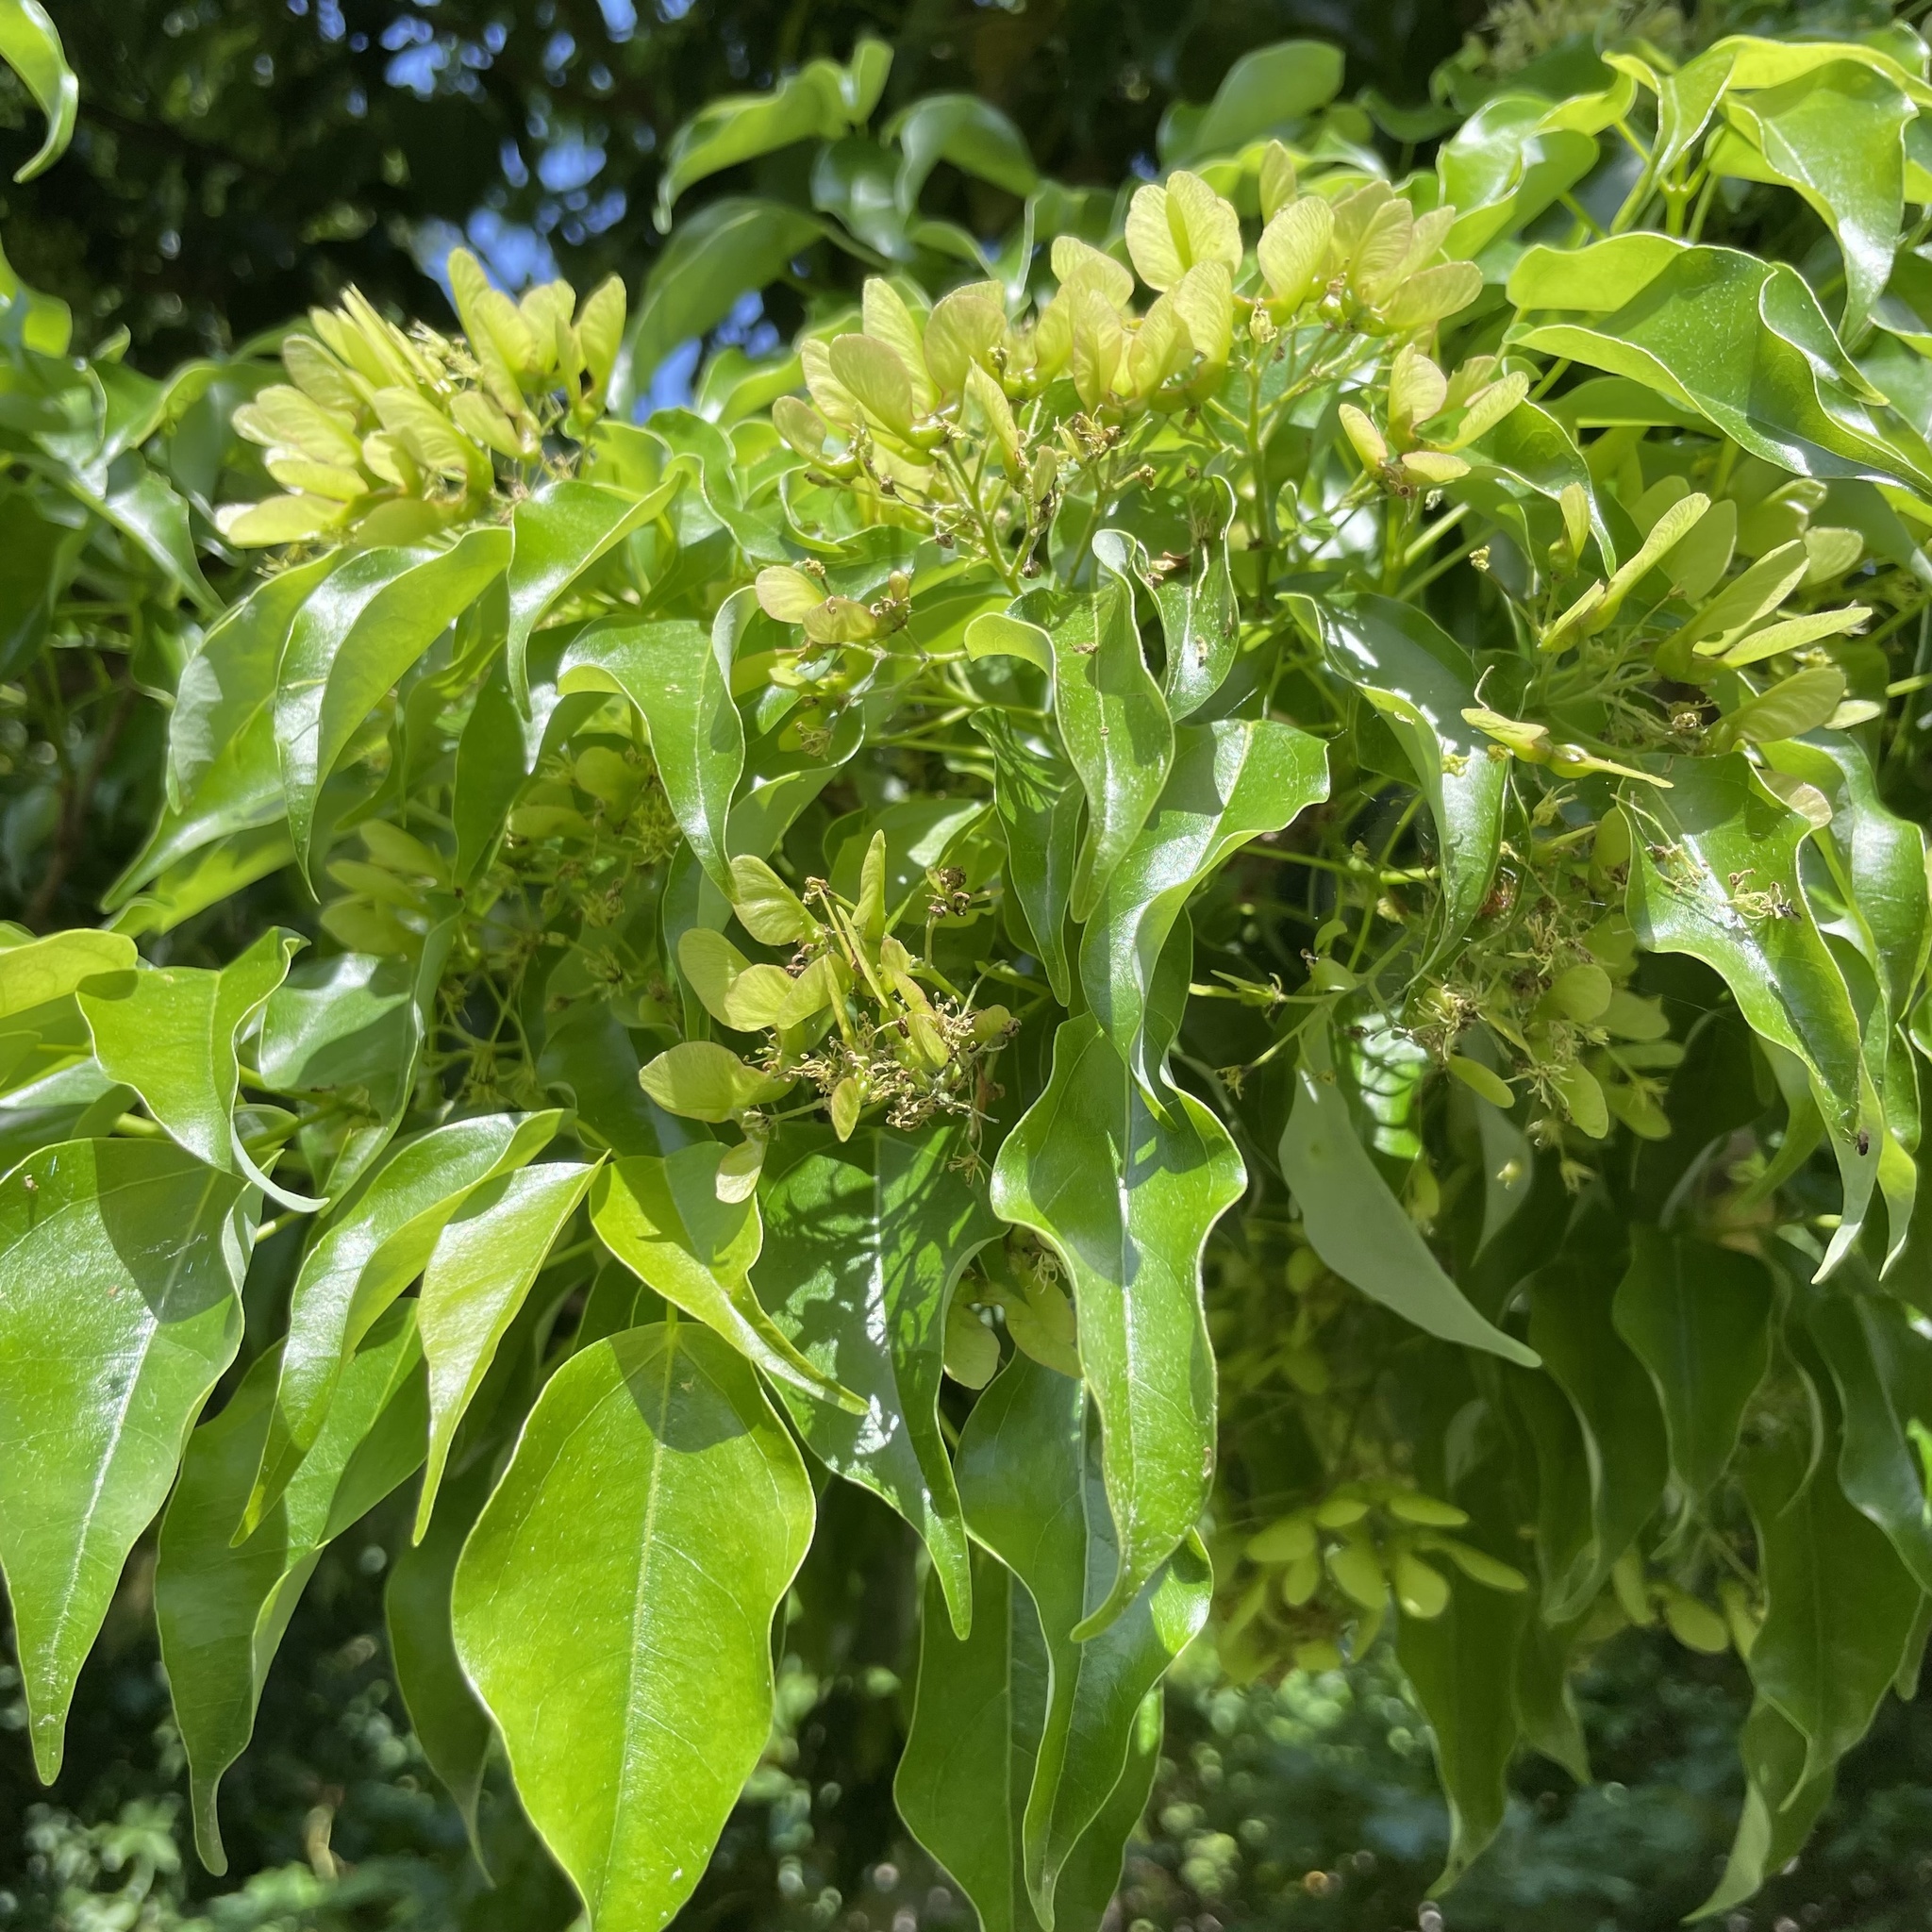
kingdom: Plantae
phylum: Tracheophyta
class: Magnoliopsida
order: Sapindales
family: Sapindaceae
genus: Acer
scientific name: Acer oblongum
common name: Himalayan maple
